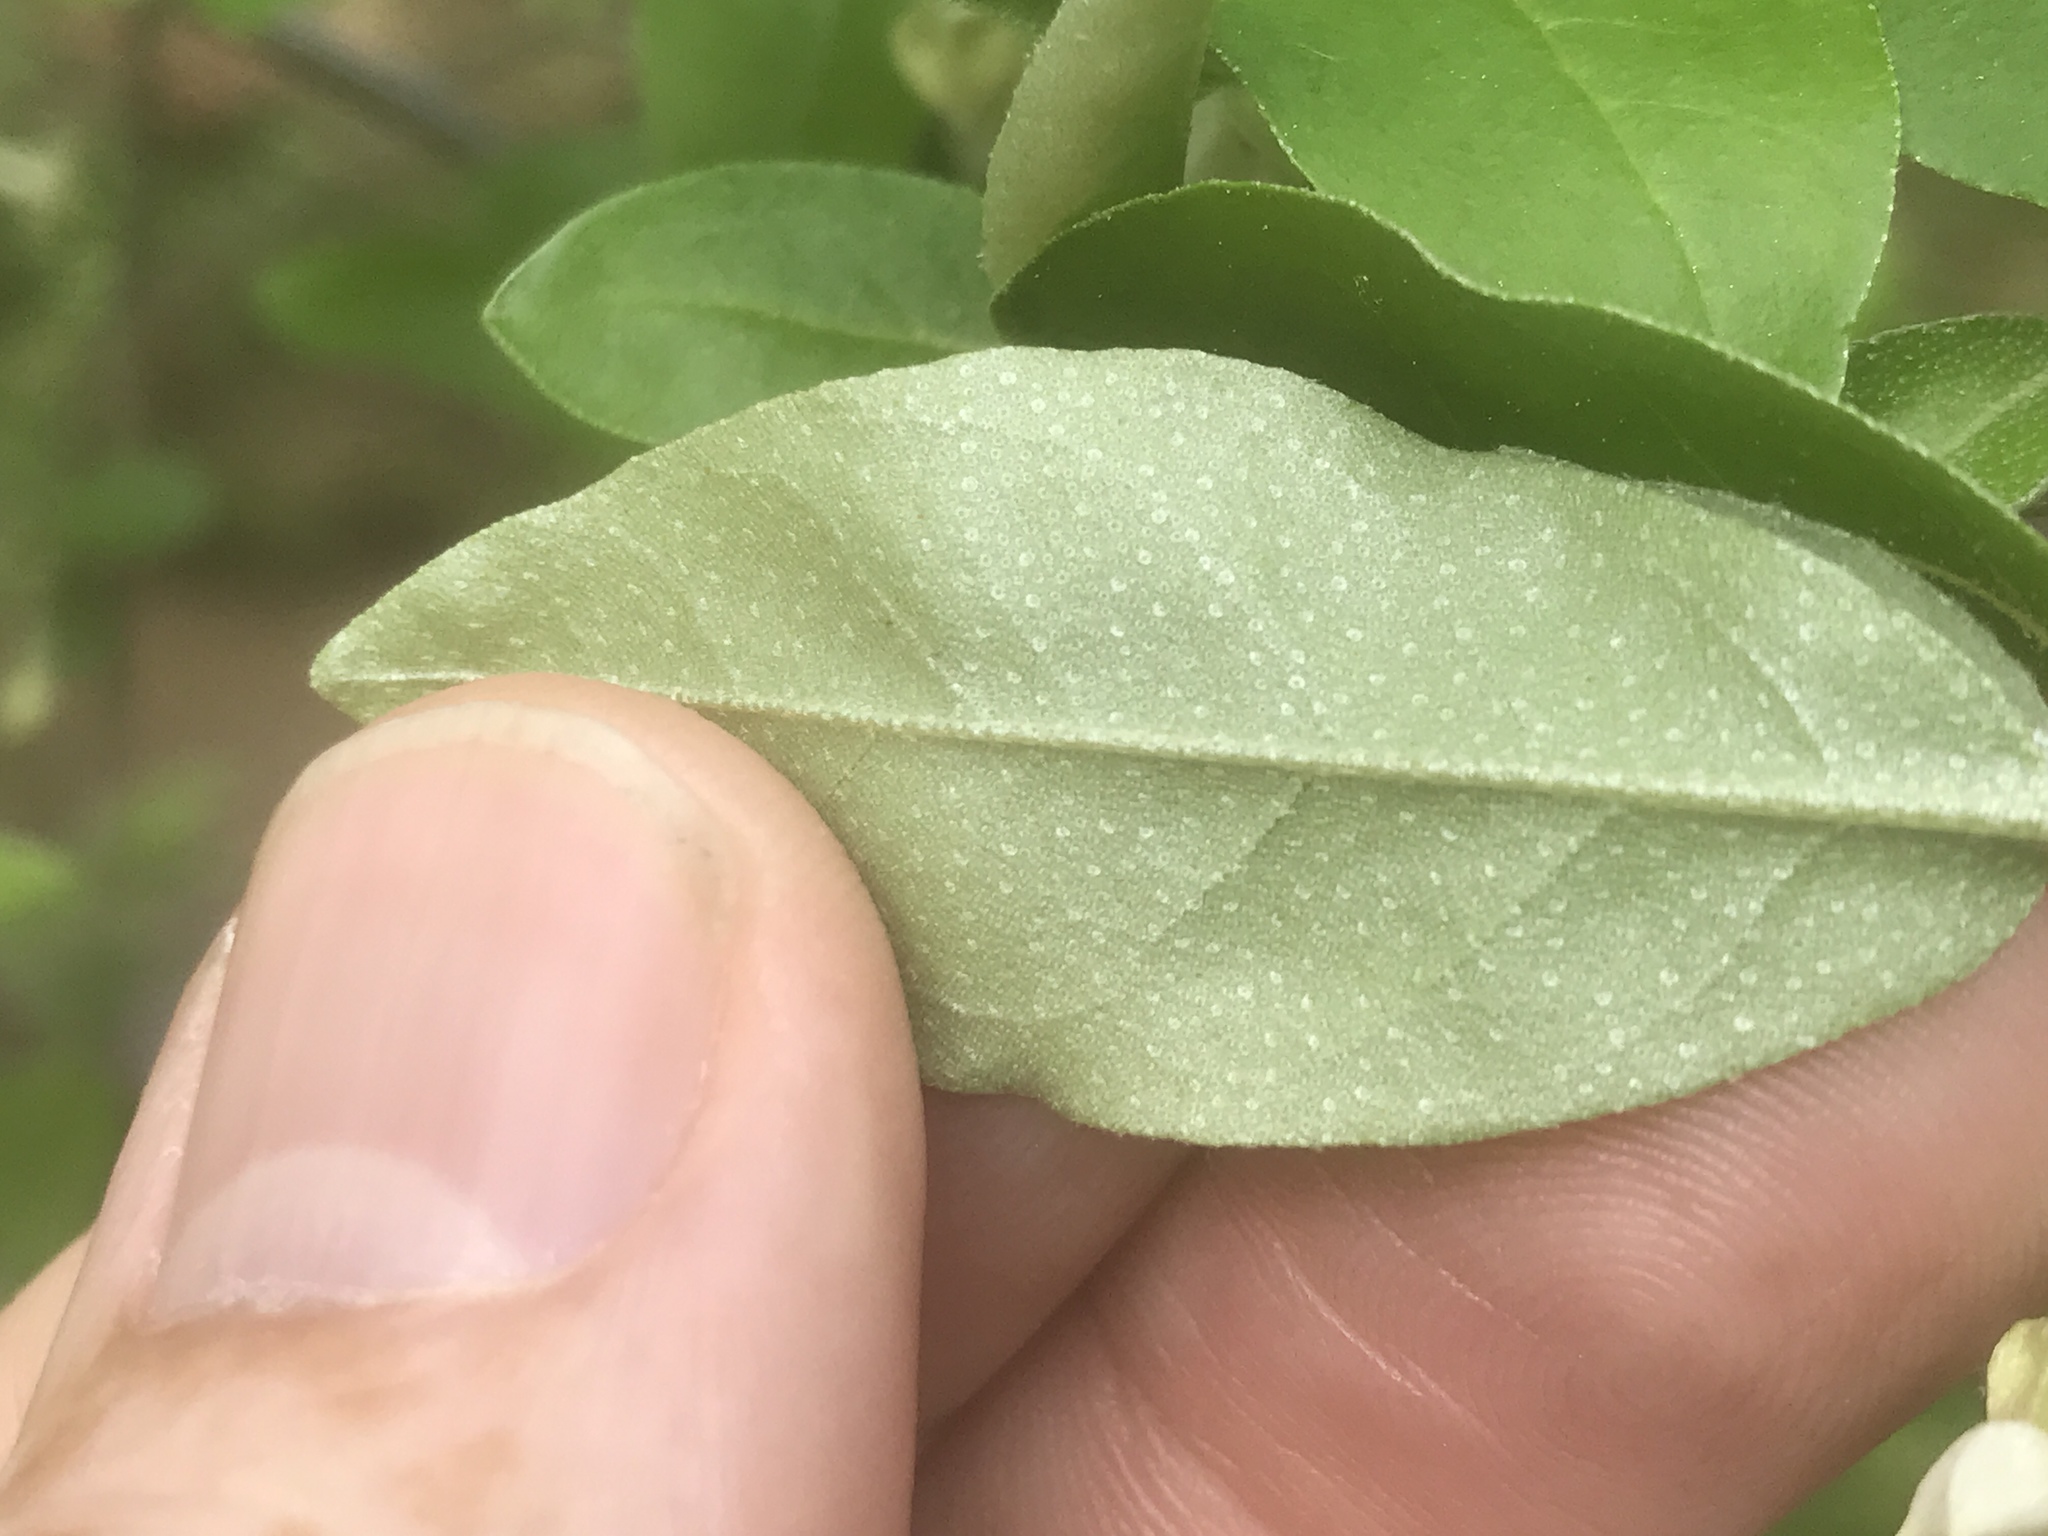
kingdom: Plantae
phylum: Tracheophyta
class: Magnoliopsida
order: Rosales
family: Elaeagnaceae
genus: Elaeagnus
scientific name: Elaeagnus umbellata
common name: Autumn olive
